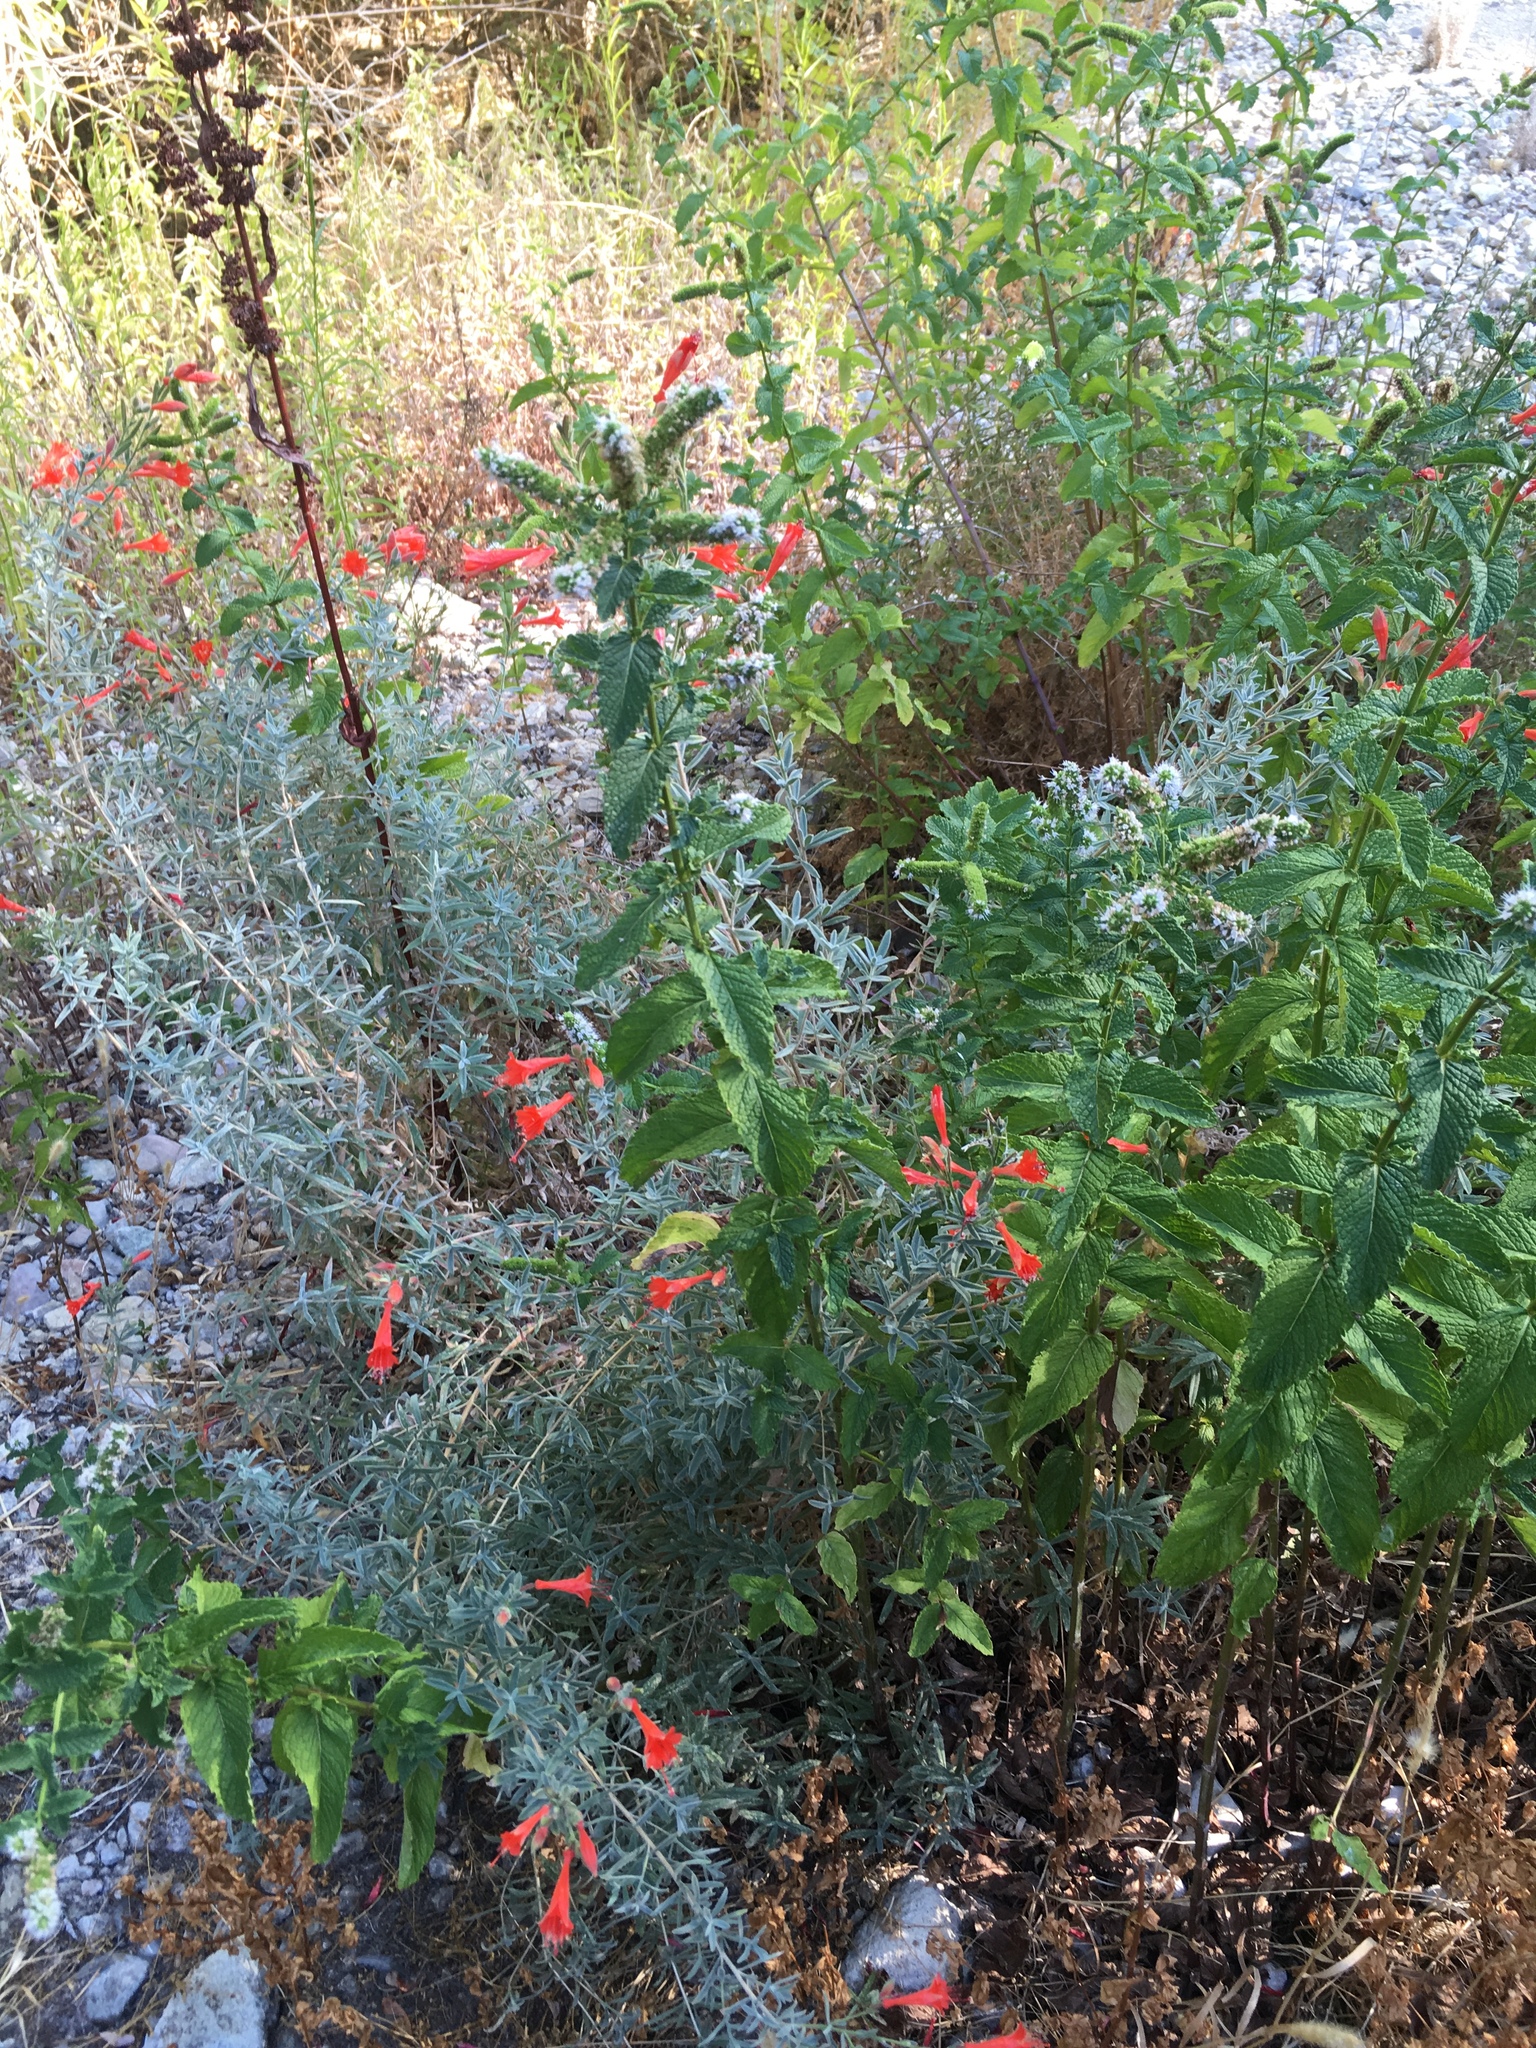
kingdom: Plantae
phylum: Tracheophyta
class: Magnoliopsida
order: Myrtales
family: Onagraceae
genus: Epilobium
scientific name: Epilobium canum
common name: California-fuchsia
